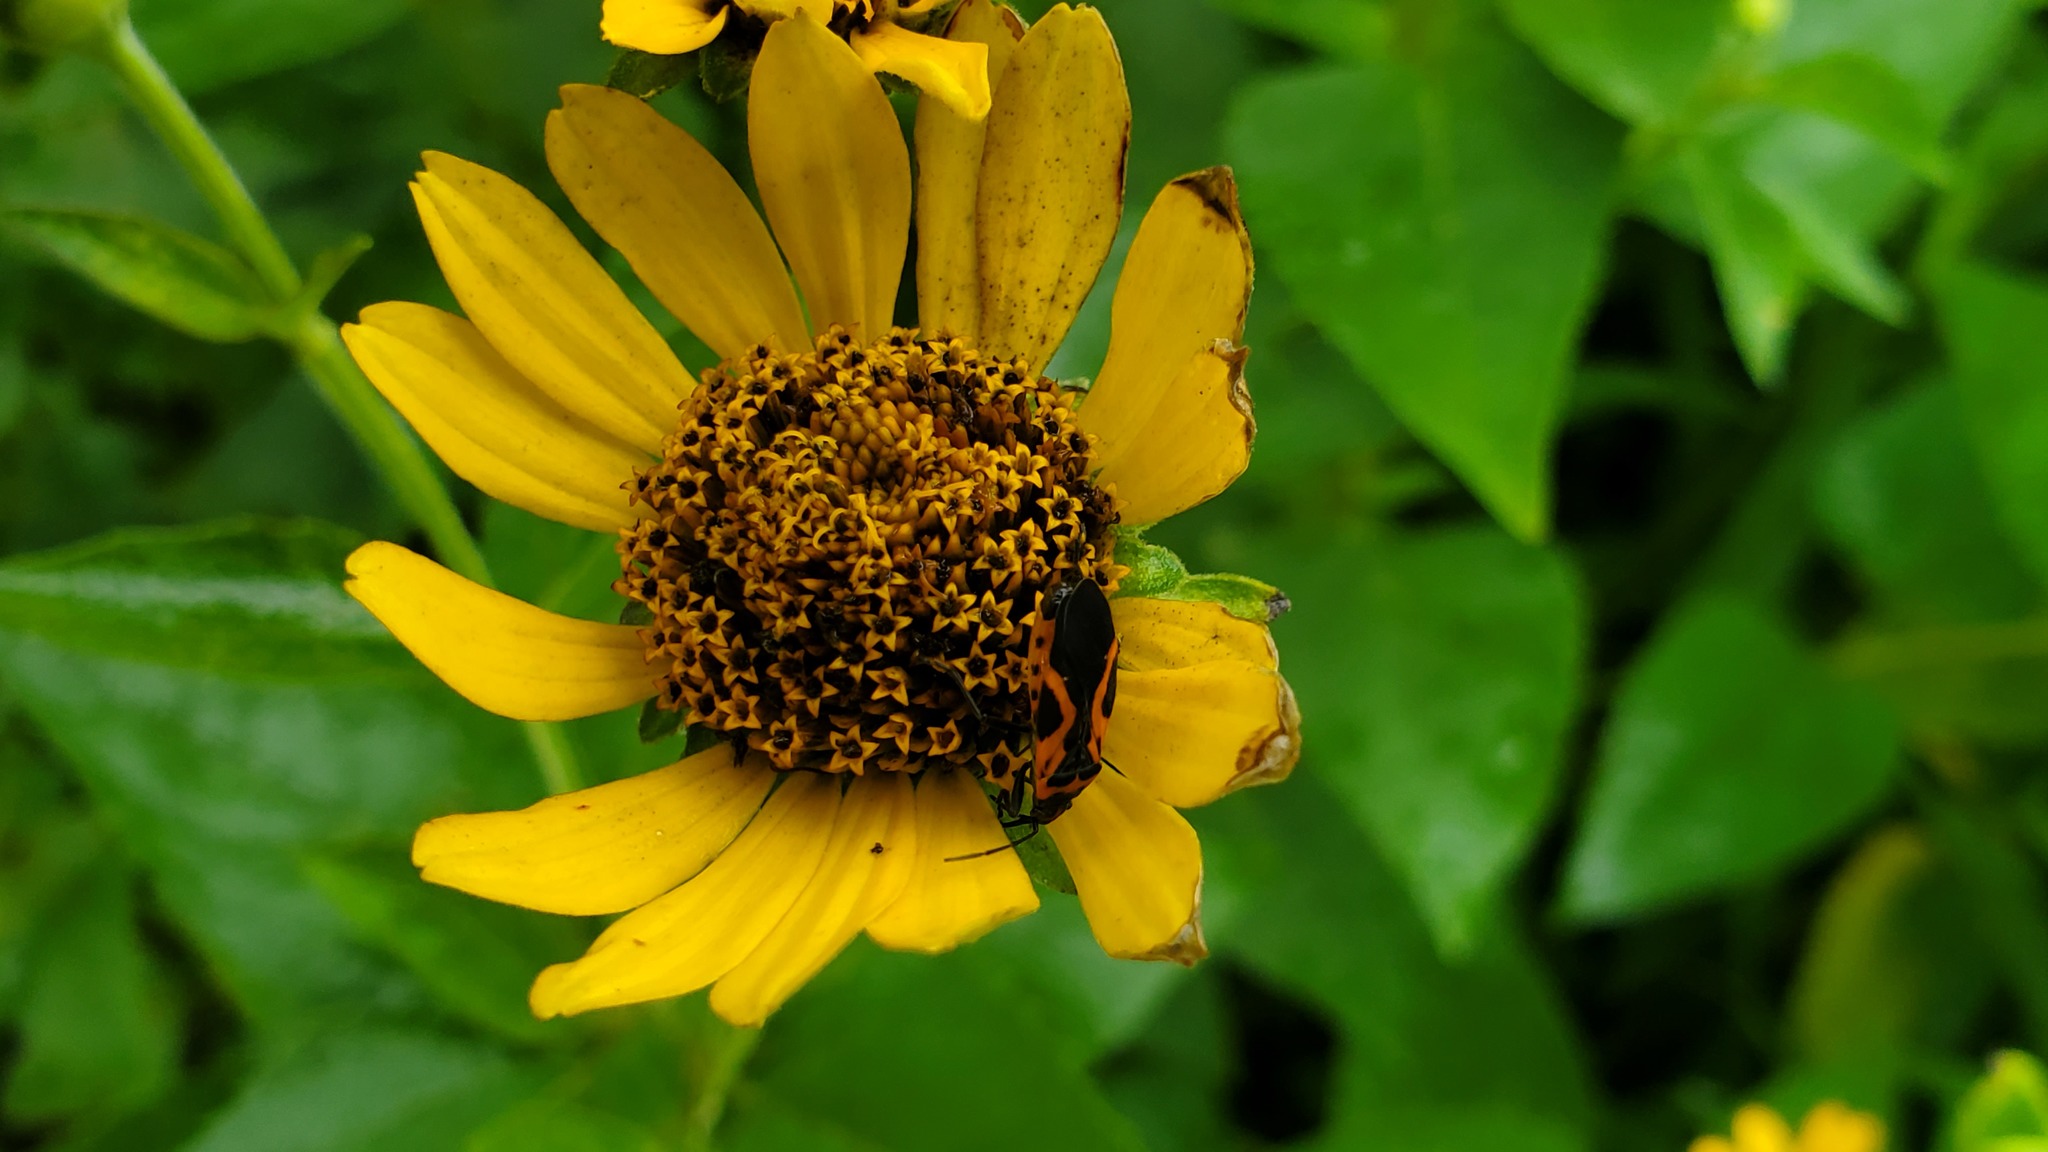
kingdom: Animalia
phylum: Arthropoda
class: Insecta
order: Hemiptera
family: Lygaeidae
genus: Lygaeus
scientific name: Lygaeus turcicus
